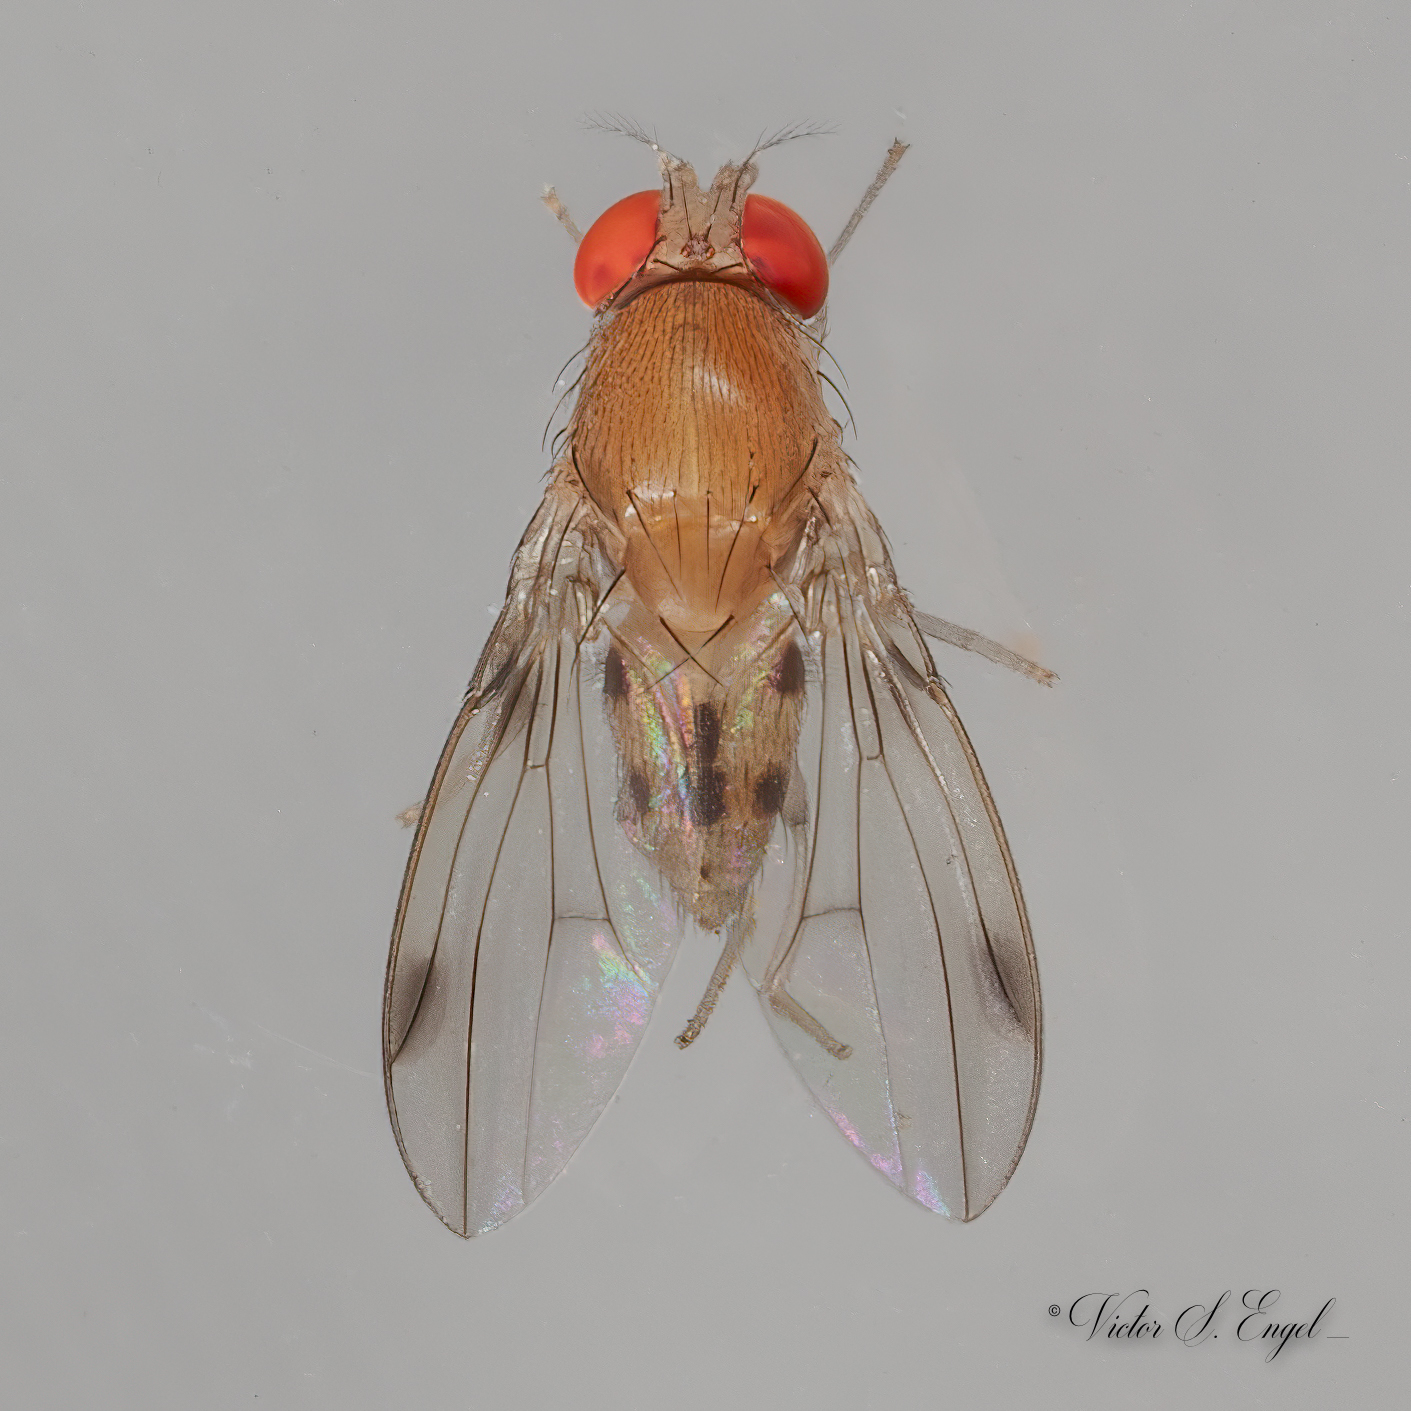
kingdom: Animalia
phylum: Arthropoda
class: Insecta
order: Diptera
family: Drosophilidae
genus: Leucophenga
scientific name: Leucophenga varia
